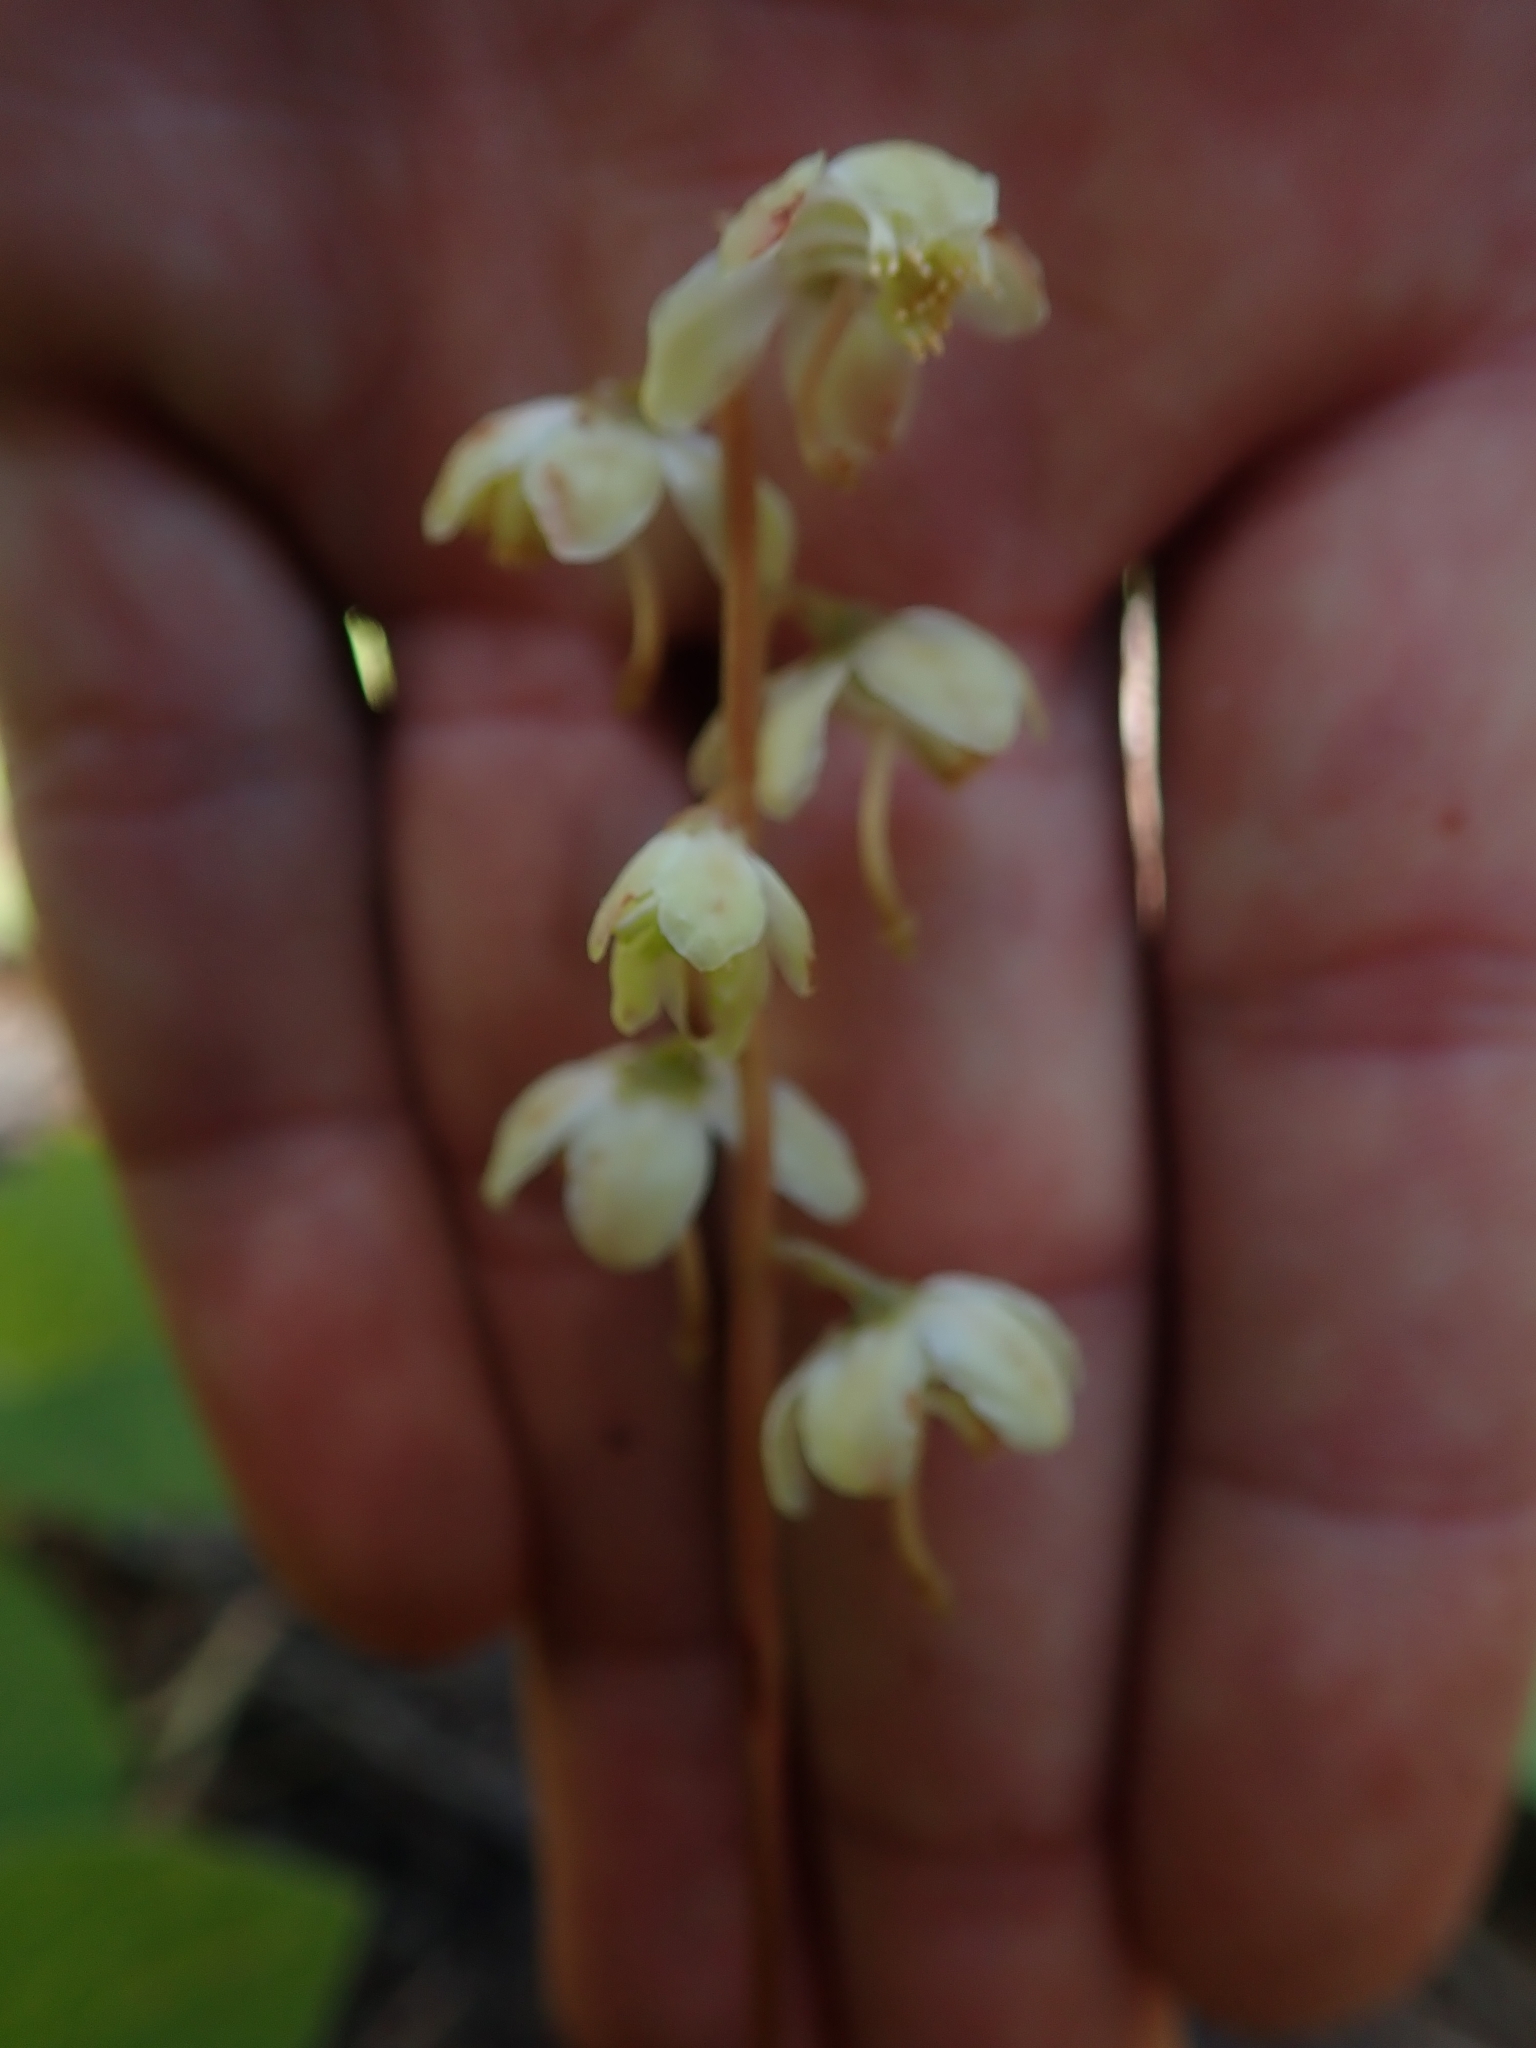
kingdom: Plantae
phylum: Tracheophyta
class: Magnoliopsida
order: Ericales
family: Ericaceae
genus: Pyrola
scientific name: Pyrola chlorantha
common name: Green wintergreen
